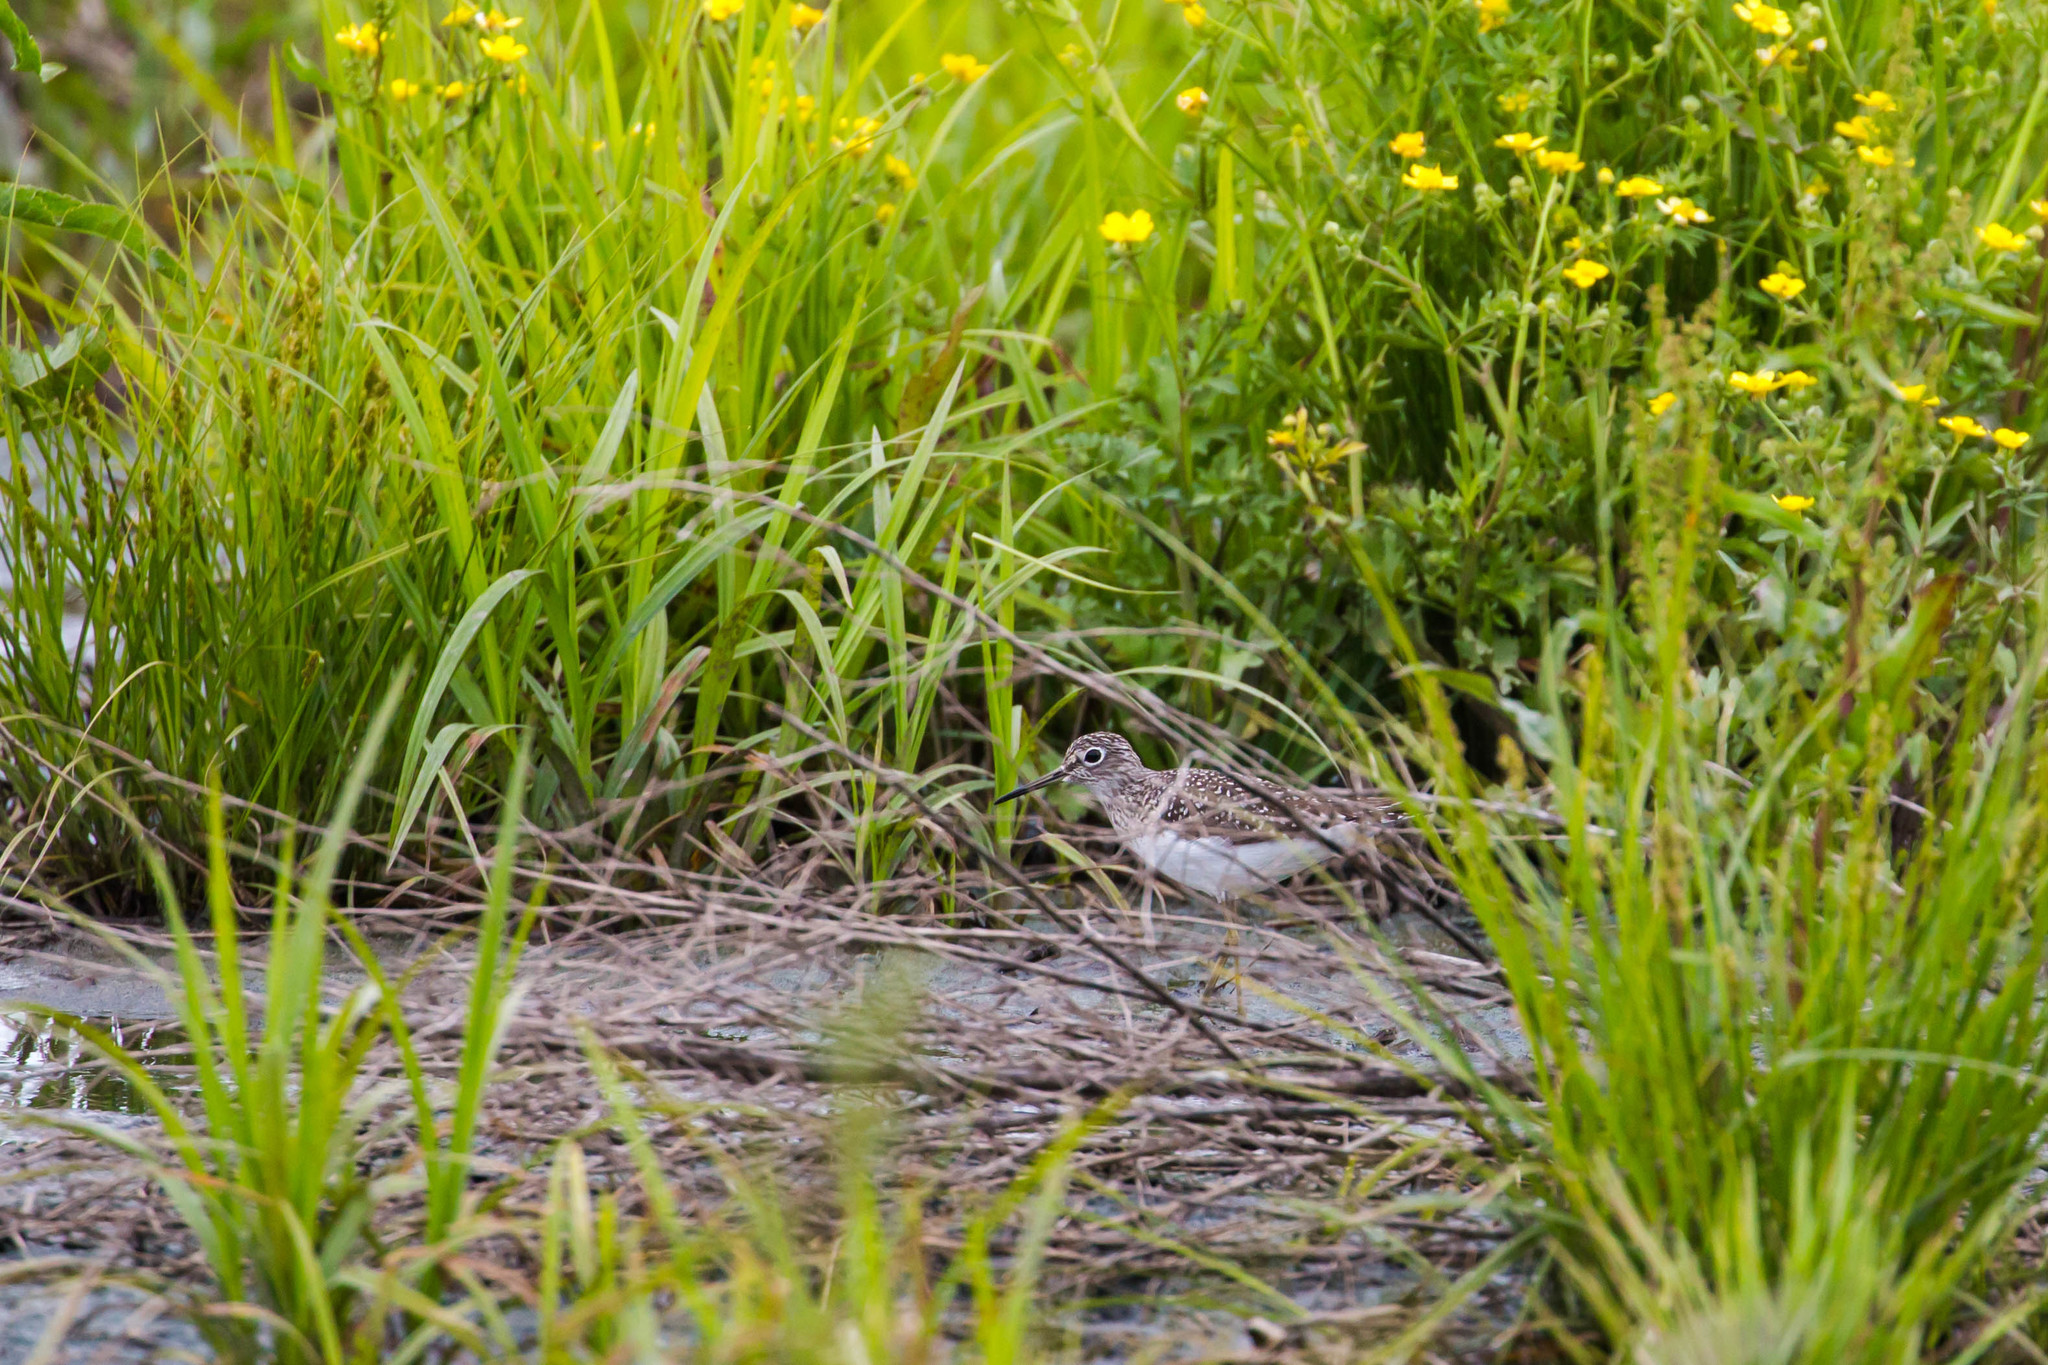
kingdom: Animalia
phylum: Chordata
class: Aves
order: Charadriiformes
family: Scolopacidae
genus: Tringa
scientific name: Tringa solitaria
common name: Solitary sandpiper
